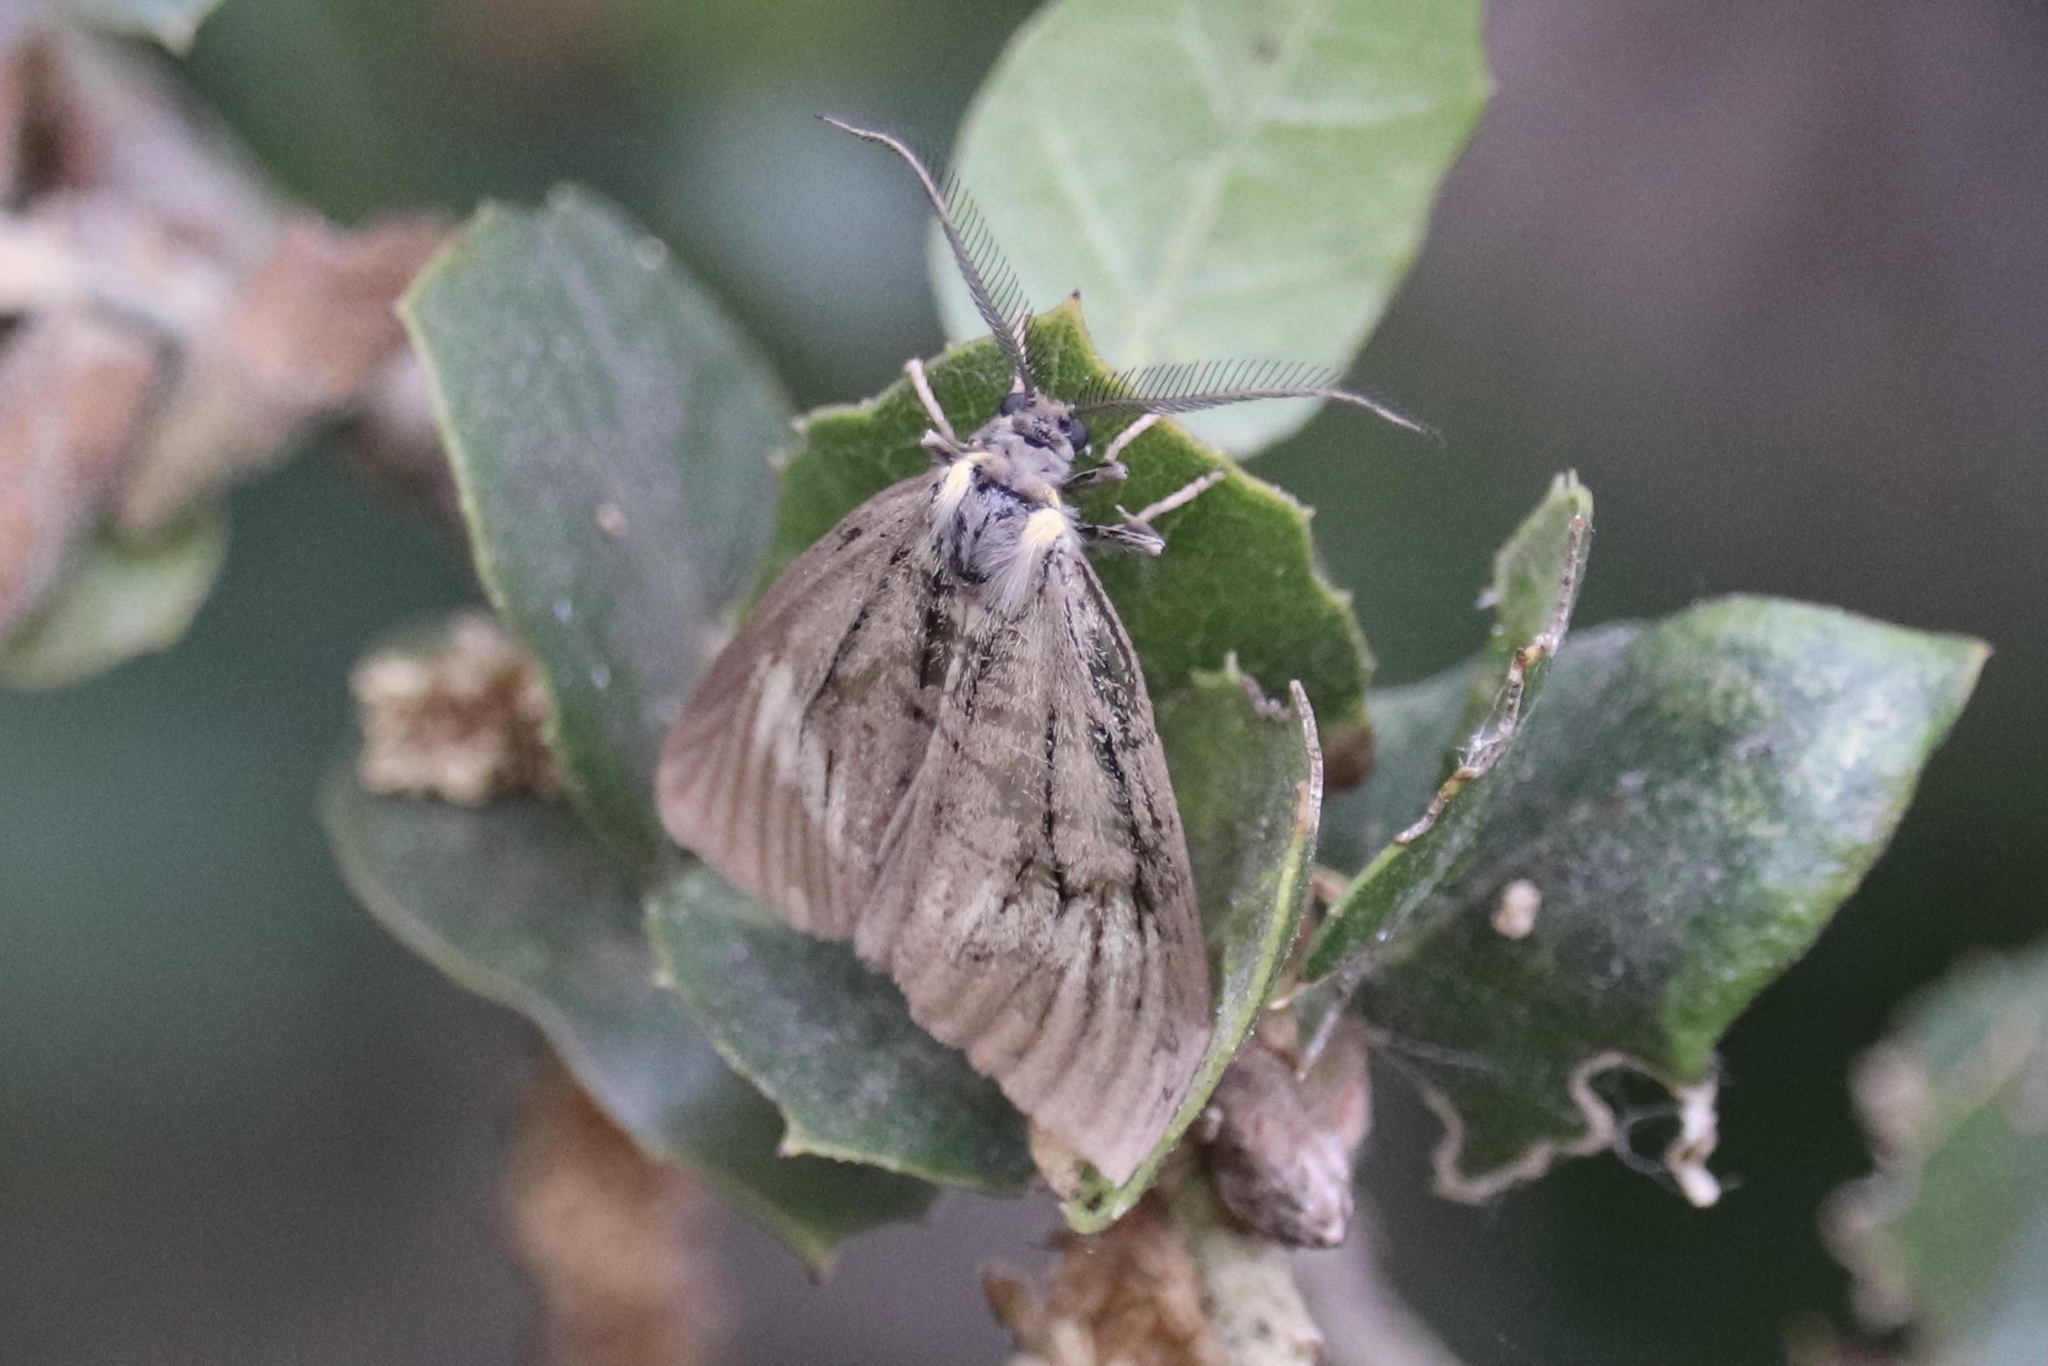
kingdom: Animalia
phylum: Arthropoda
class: Insecta
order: Lepidoptera
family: Notodontidae
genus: Phryganidia
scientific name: Phryganidia californica
